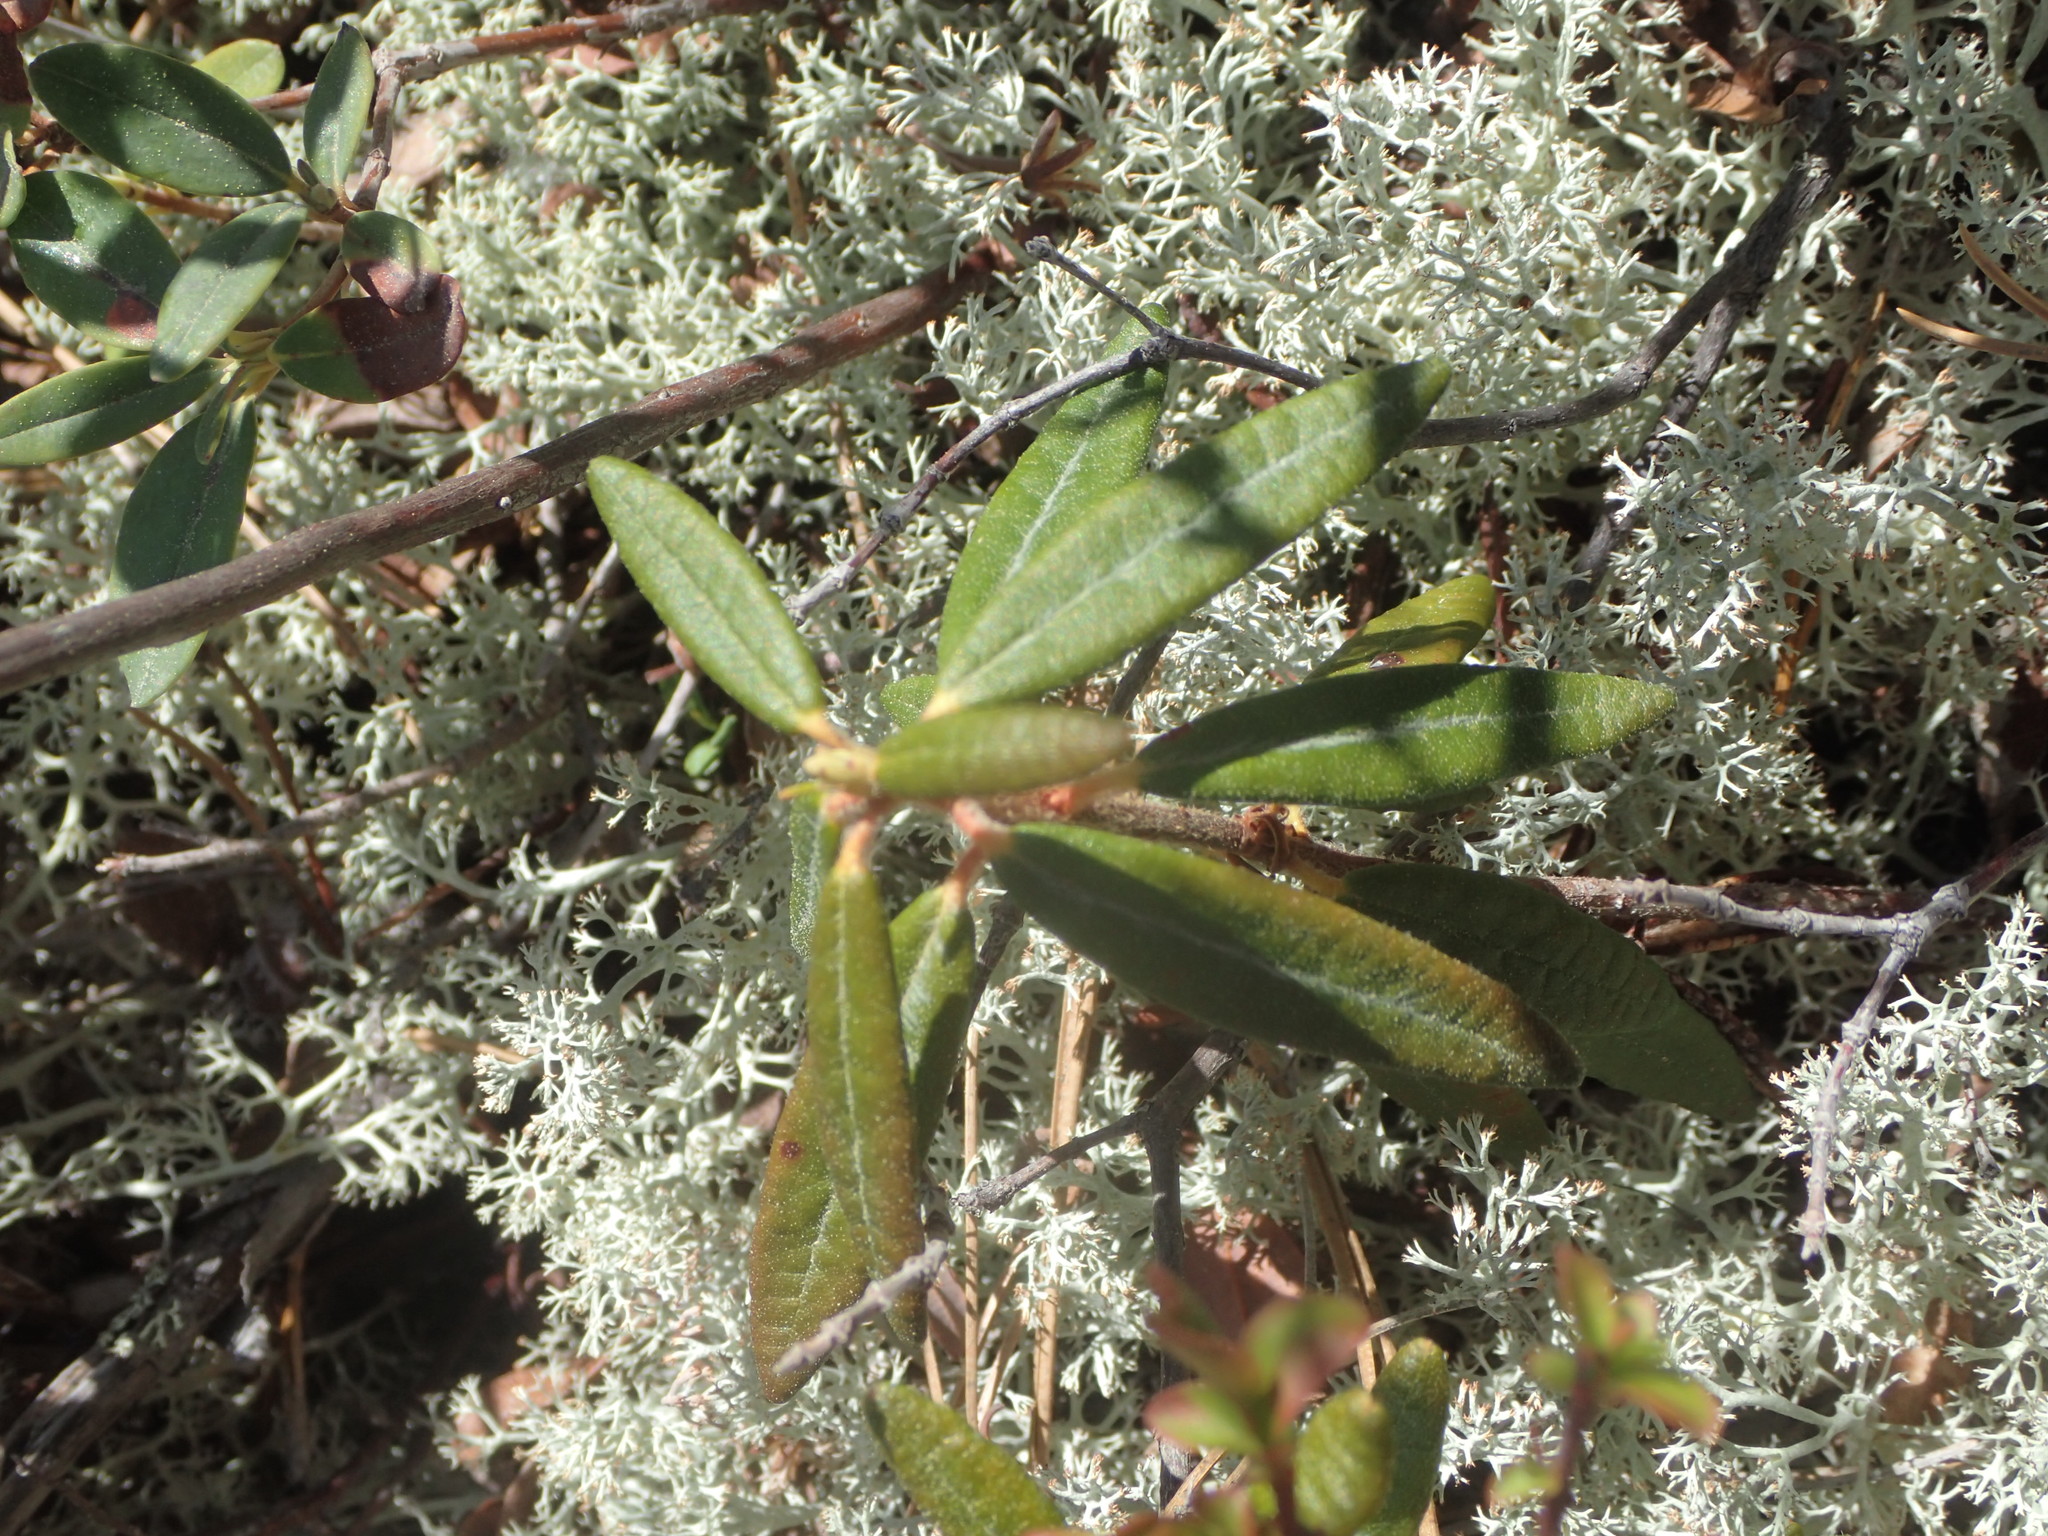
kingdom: Plantae
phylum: Tracheophyta
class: Magnoliopsida
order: Ericales
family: Ericaceae
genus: Rhododendron
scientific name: Rhododendron groenlandicum
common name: Bog labrador tea
